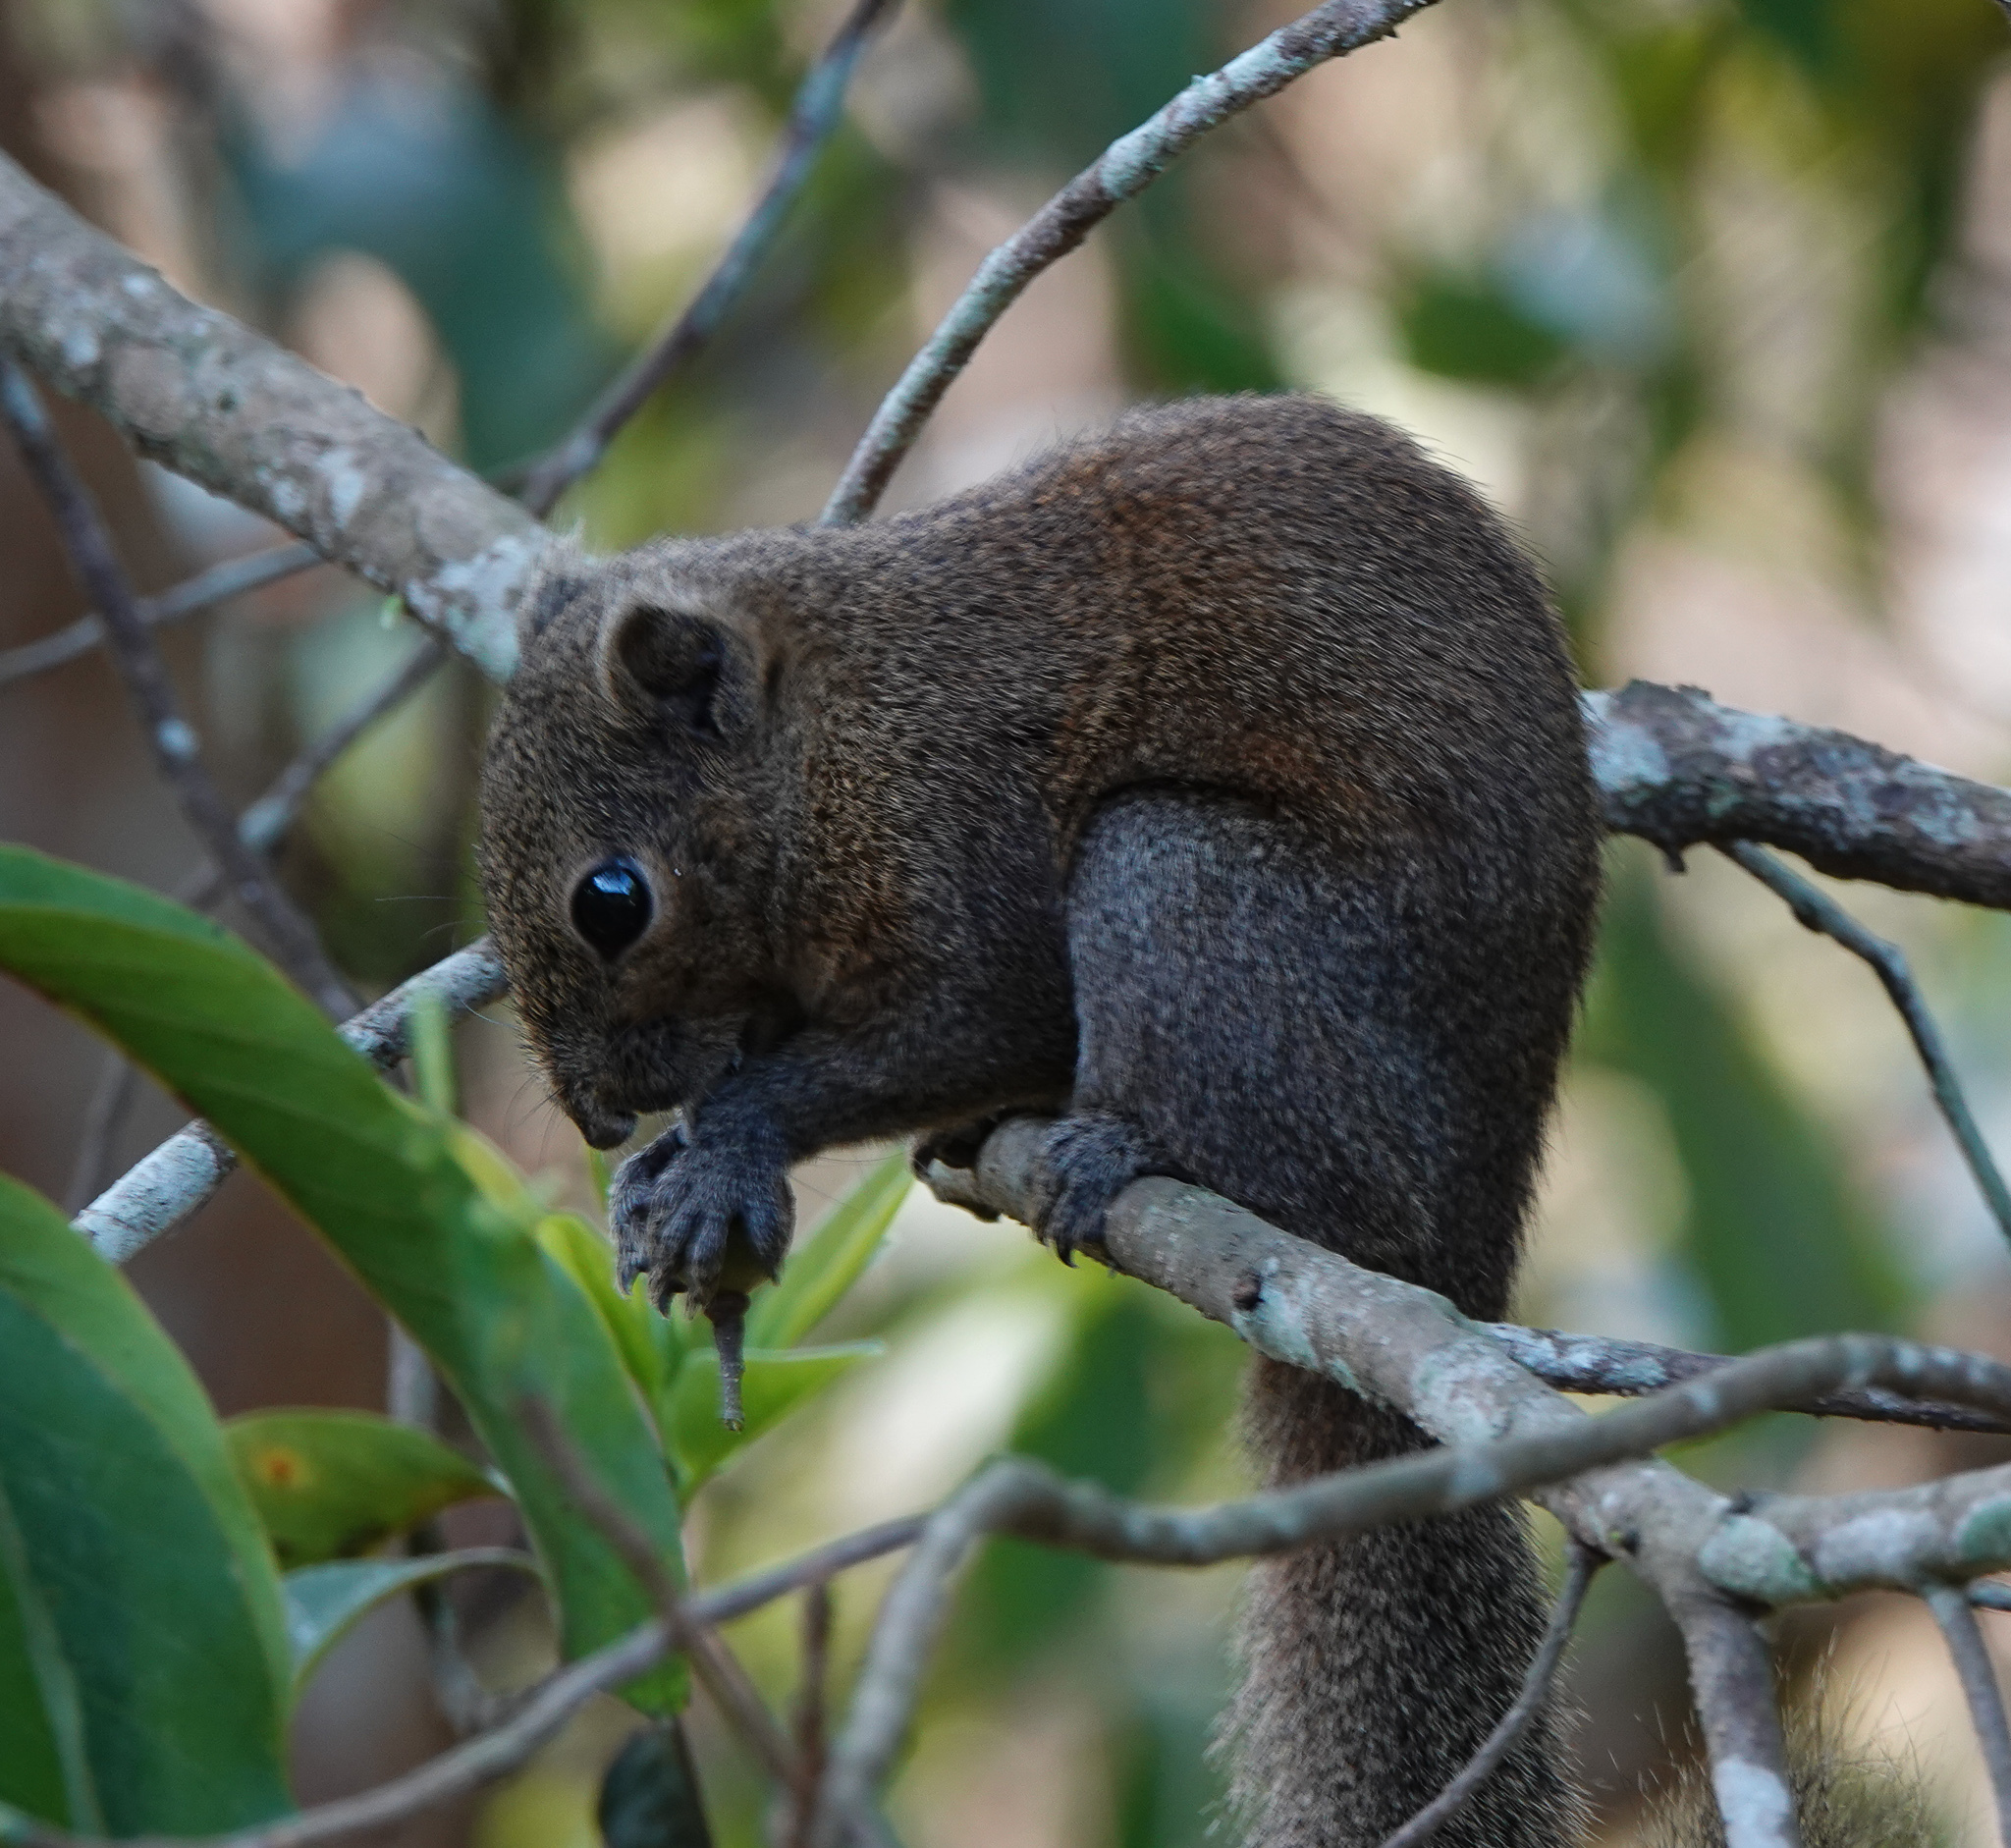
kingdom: Animalia
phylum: Chordata
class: Mammalia
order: Rodentia
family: Sciuridae
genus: Callosciurus
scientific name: Callosciurus pygerythrus
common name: Irrawaddy squirrel
